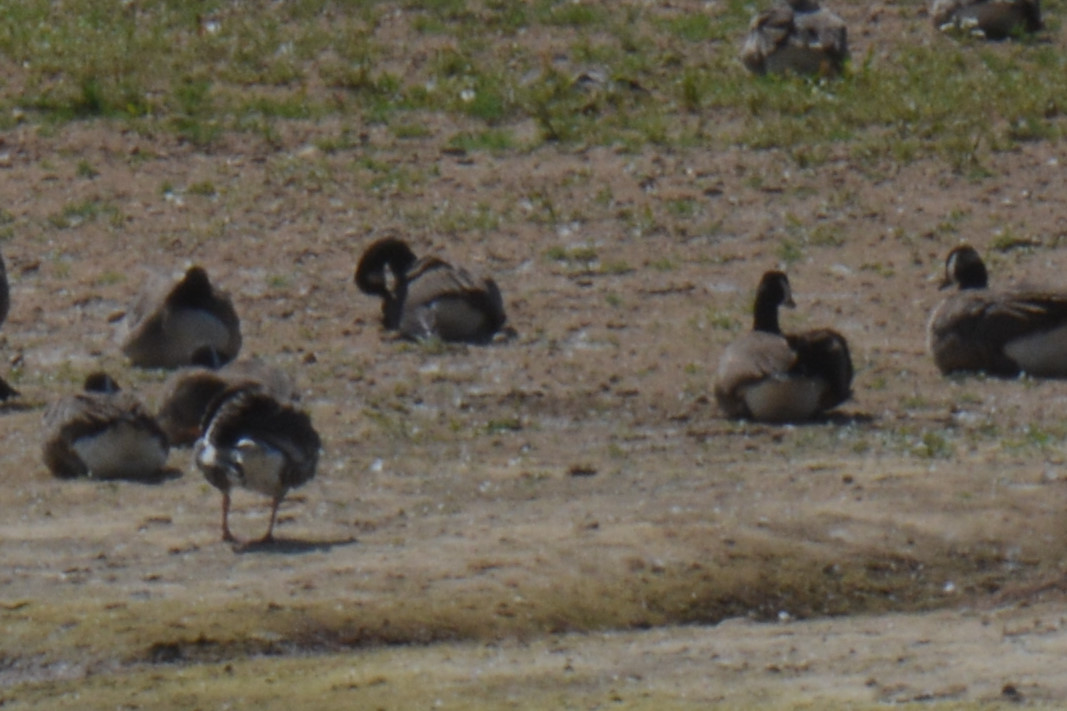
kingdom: Animalia
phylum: Chordata
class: Aves
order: Anseriformes
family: Anatidae
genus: Branta
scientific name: Branta canadensis
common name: Canada goose
